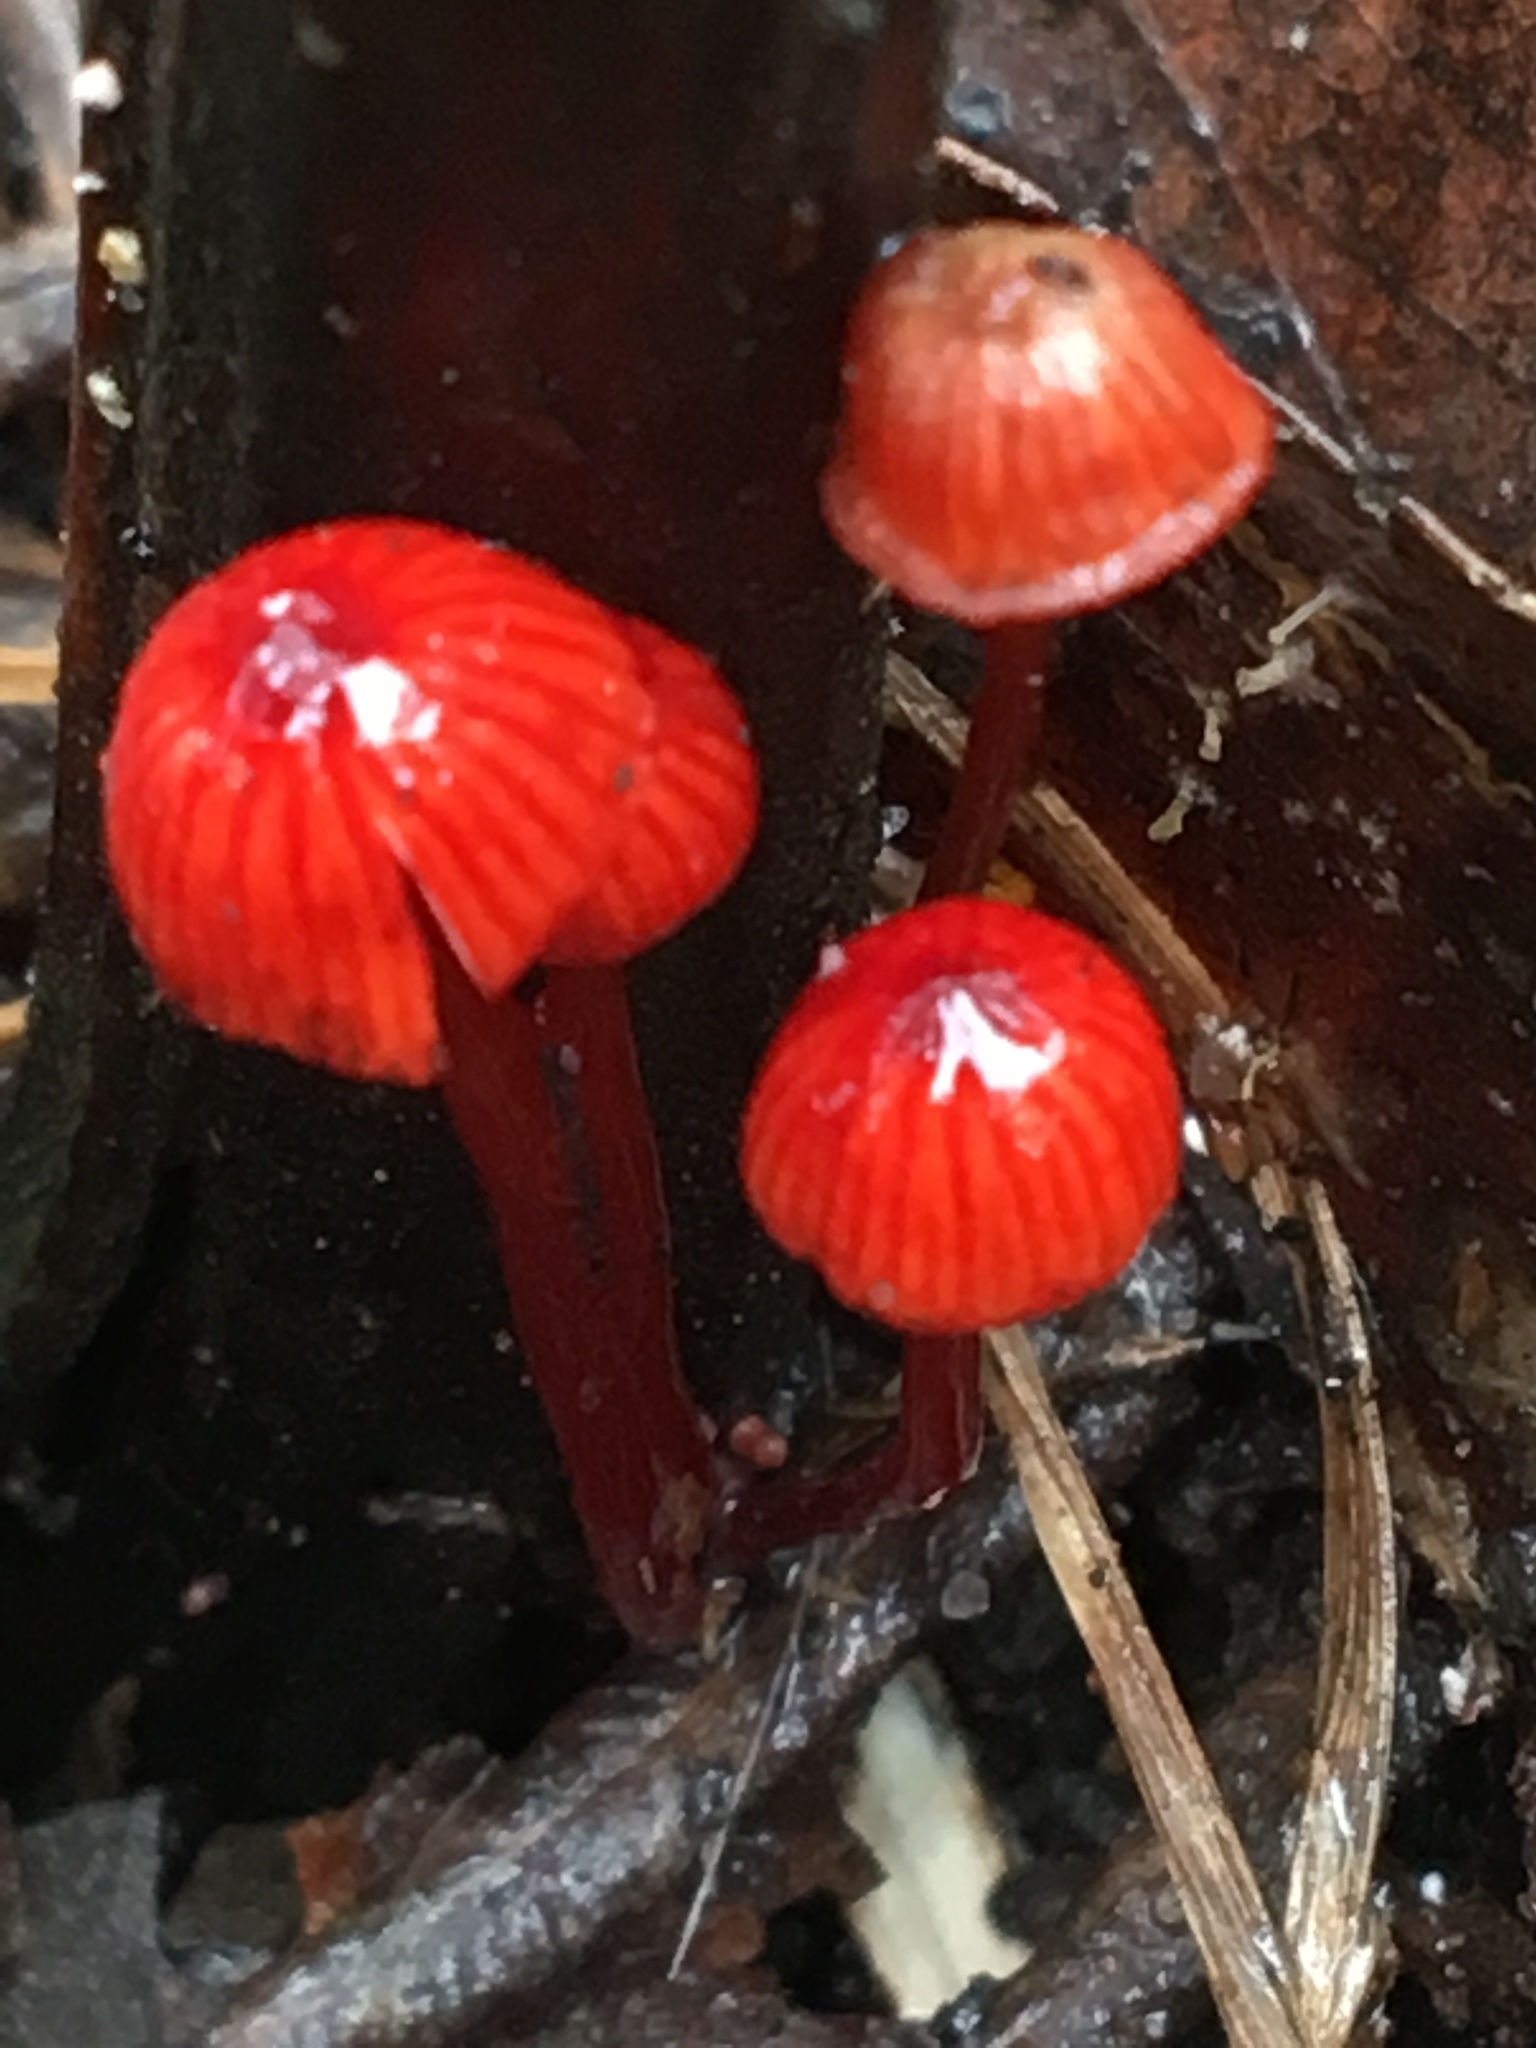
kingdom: Fungi
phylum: Basidiomycota
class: Agaricomycetes
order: Agaricales
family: Mycenaceae
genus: Cruentomycena
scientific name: Cruentomycena viscidocruenta
